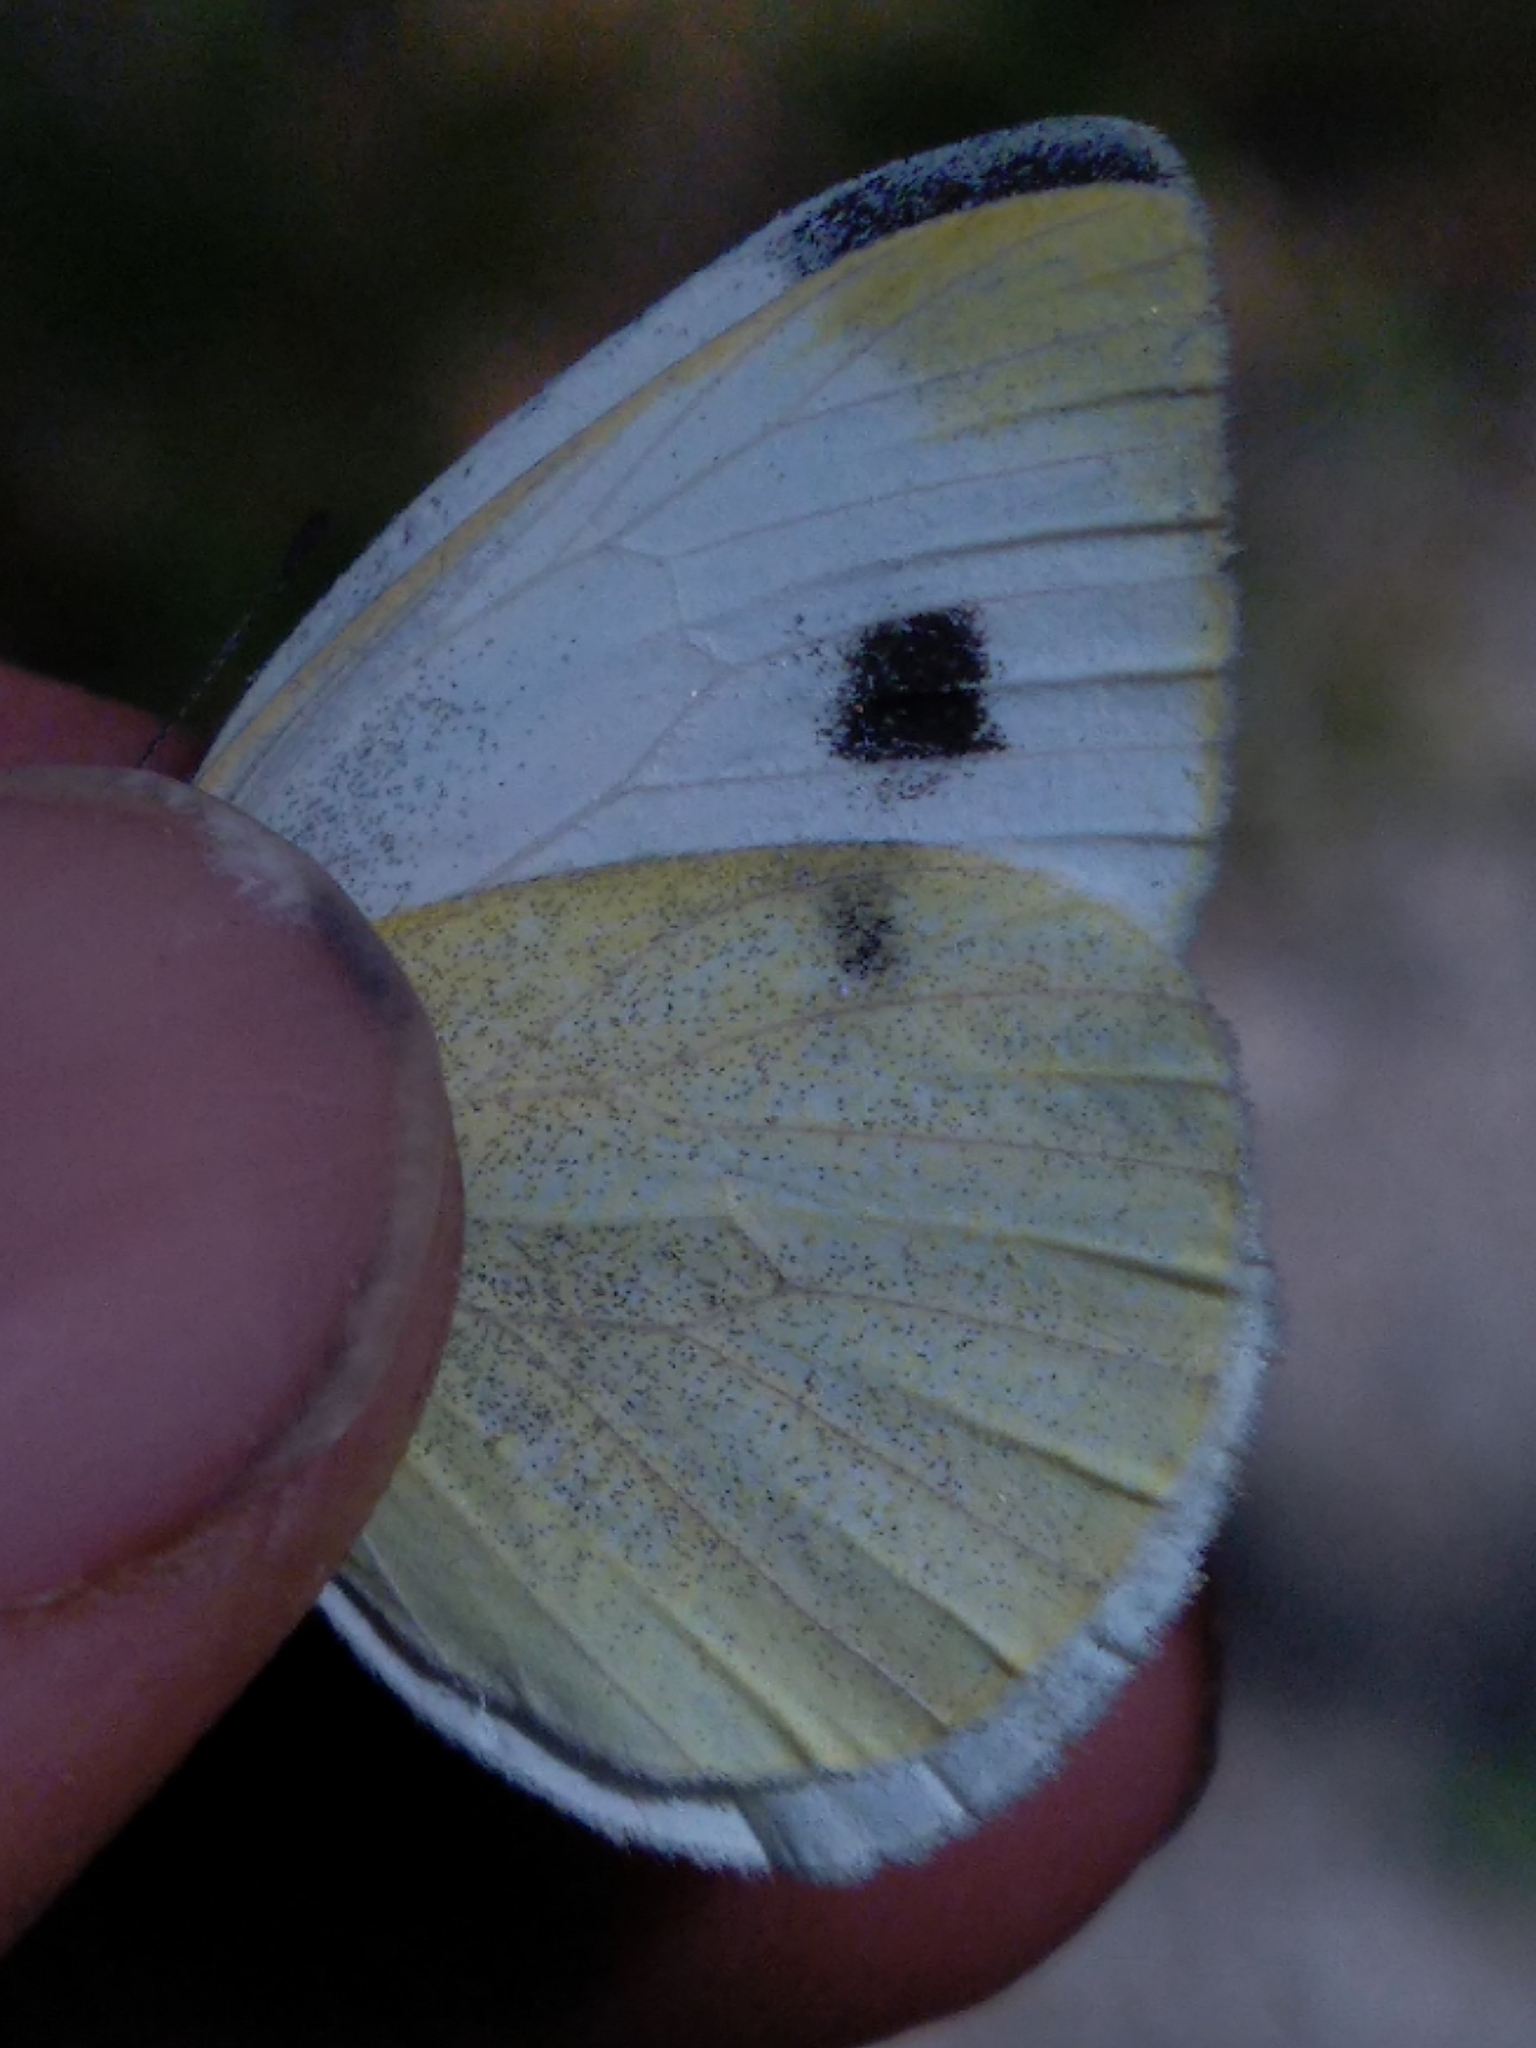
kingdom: Animalia
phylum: Arthropoda
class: Insecta
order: Lepidoptera
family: Pieridae
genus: Pieris
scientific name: Pieris mannii
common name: Southern small white
